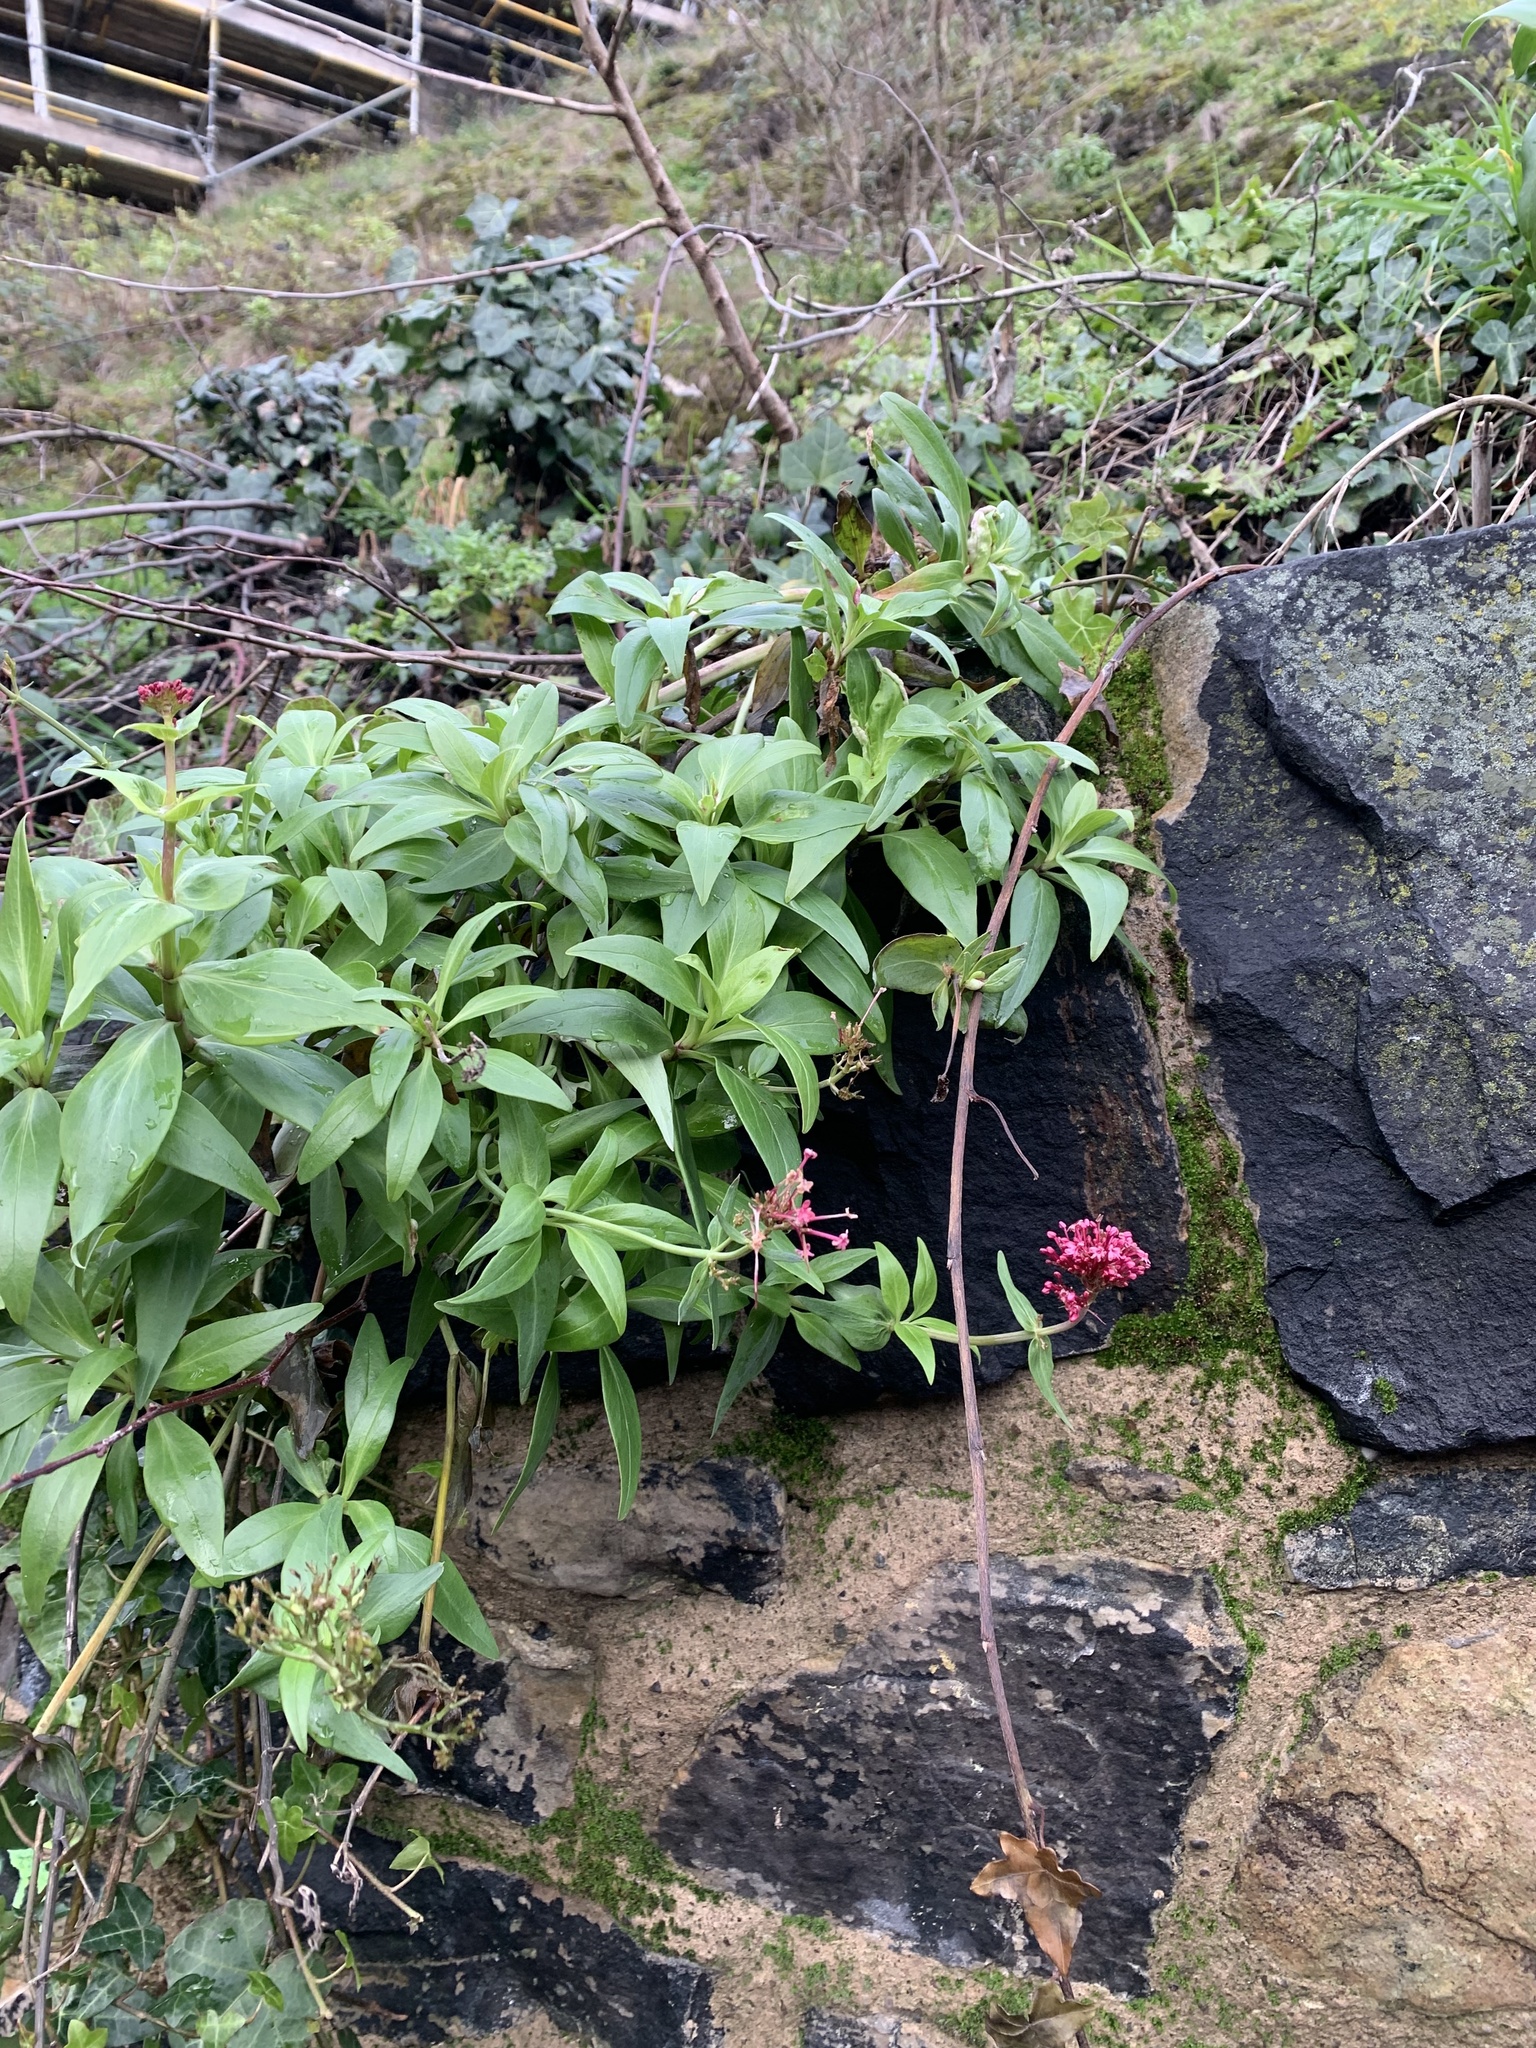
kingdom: Plantae
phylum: Tracheophyta
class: Magnoliopsida
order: Dipsacales
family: Caprifoliaceae
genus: Centranthus
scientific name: Centranthus ruber
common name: Red valerian
